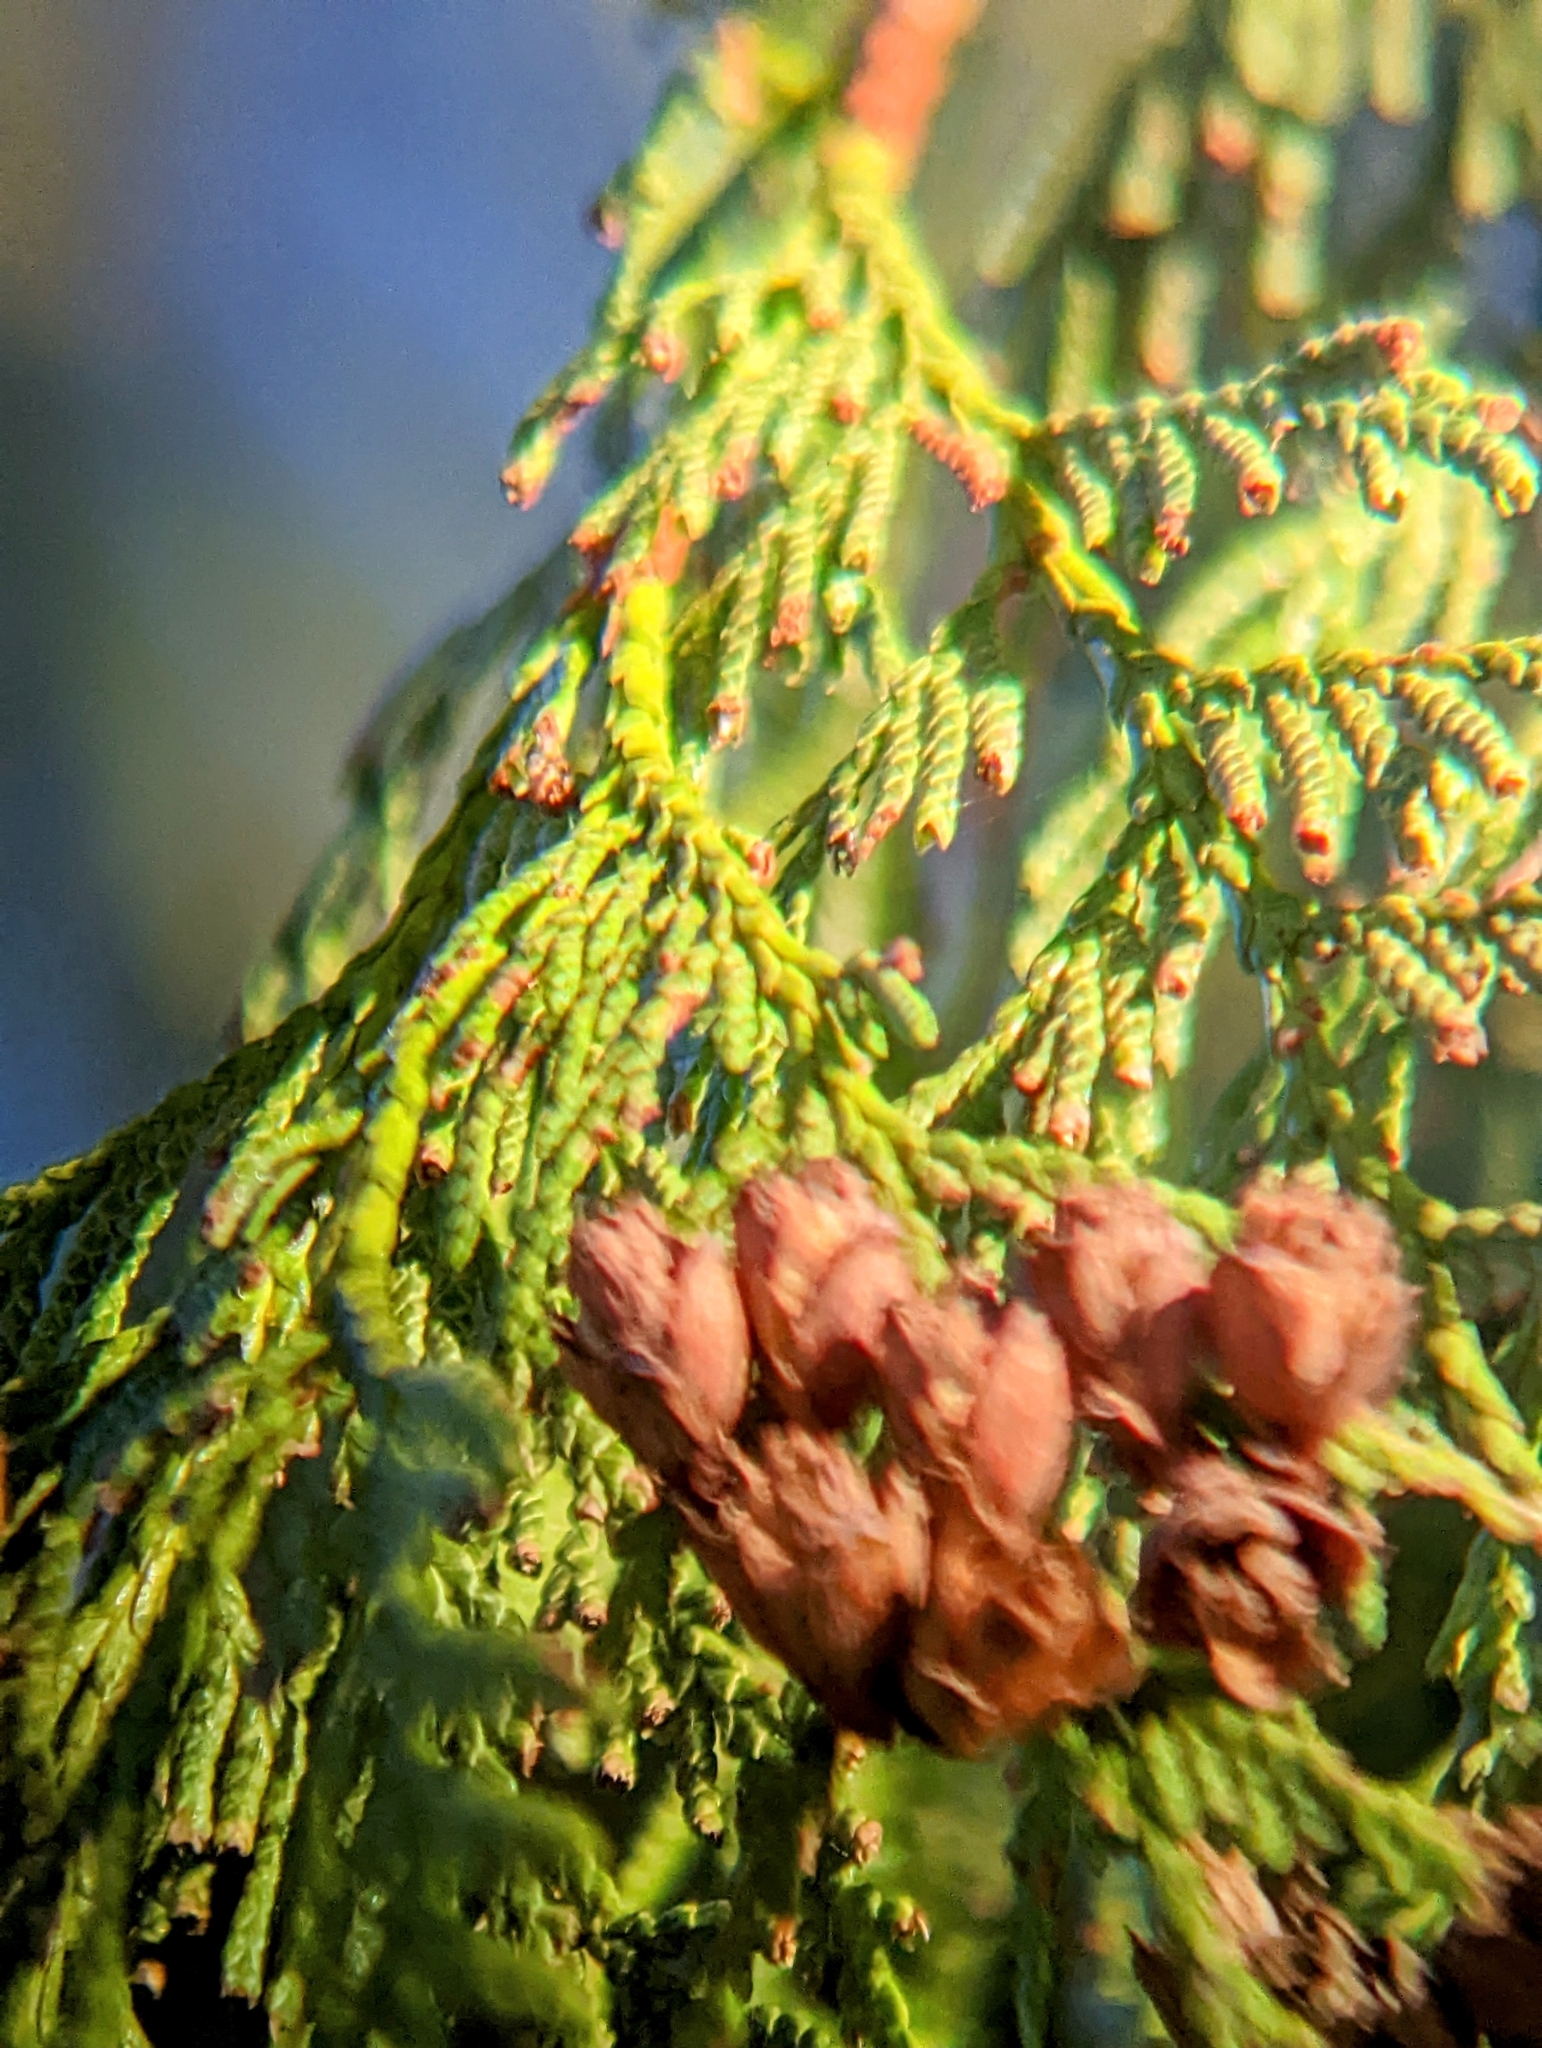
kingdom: Plantae
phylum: Tracheophyta
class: Pinopsida
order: Pinales
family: Cupressaceae
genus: Thuja
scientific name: Thuja plicata
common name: Western red-cedar
